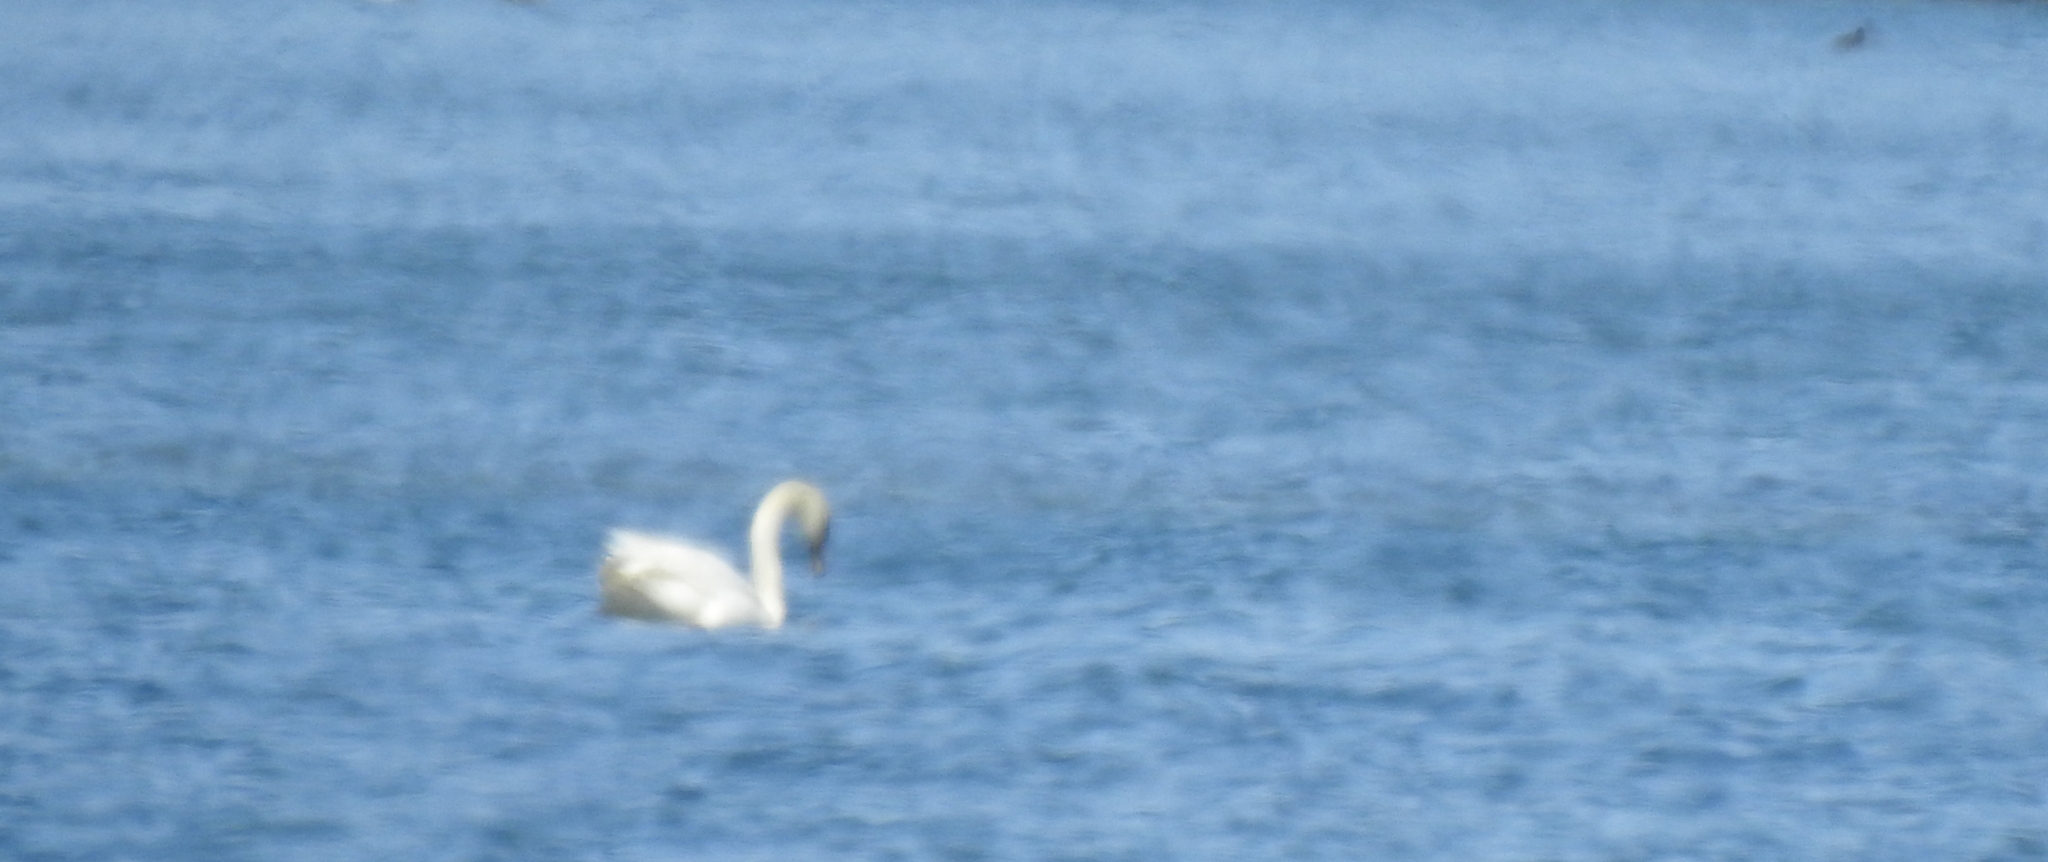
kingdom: Animalia
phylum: Chordata
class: Aves
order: Anseriformes
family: Anatidae
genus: Cygnus
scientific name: Cygnus olor
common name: Mute swan
